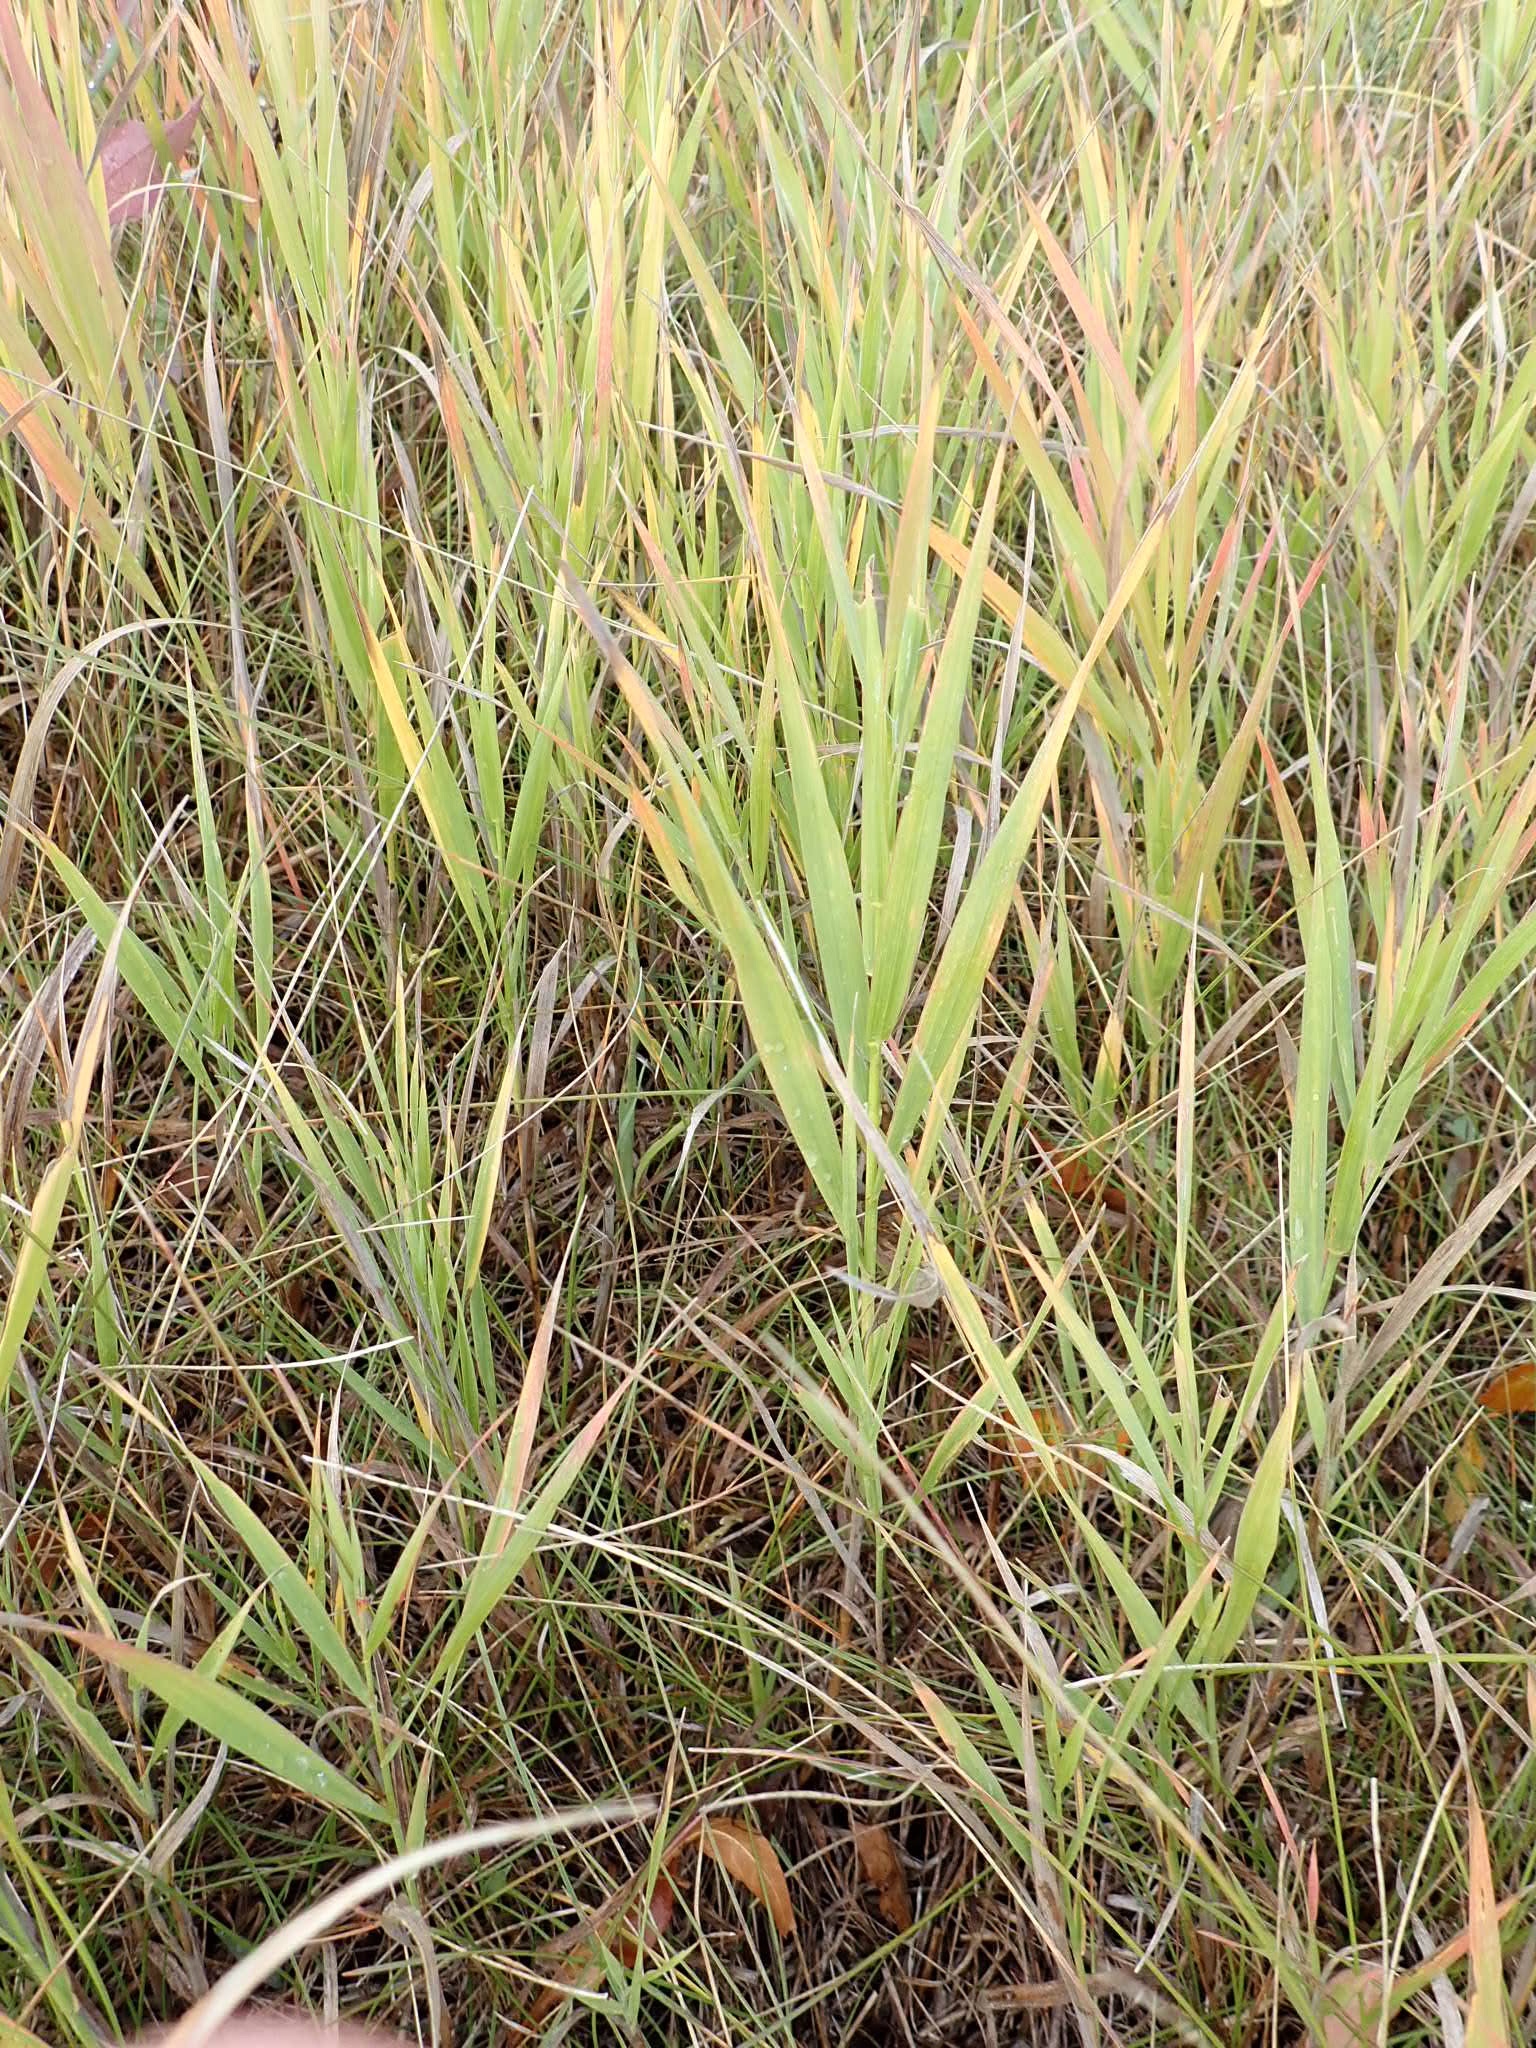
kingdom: Plantae
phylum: Tracheophyta
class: Liliopsida
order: Poales
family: Poaceae
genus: Bromus
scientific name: Bromus inermis
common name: Smooth brome
